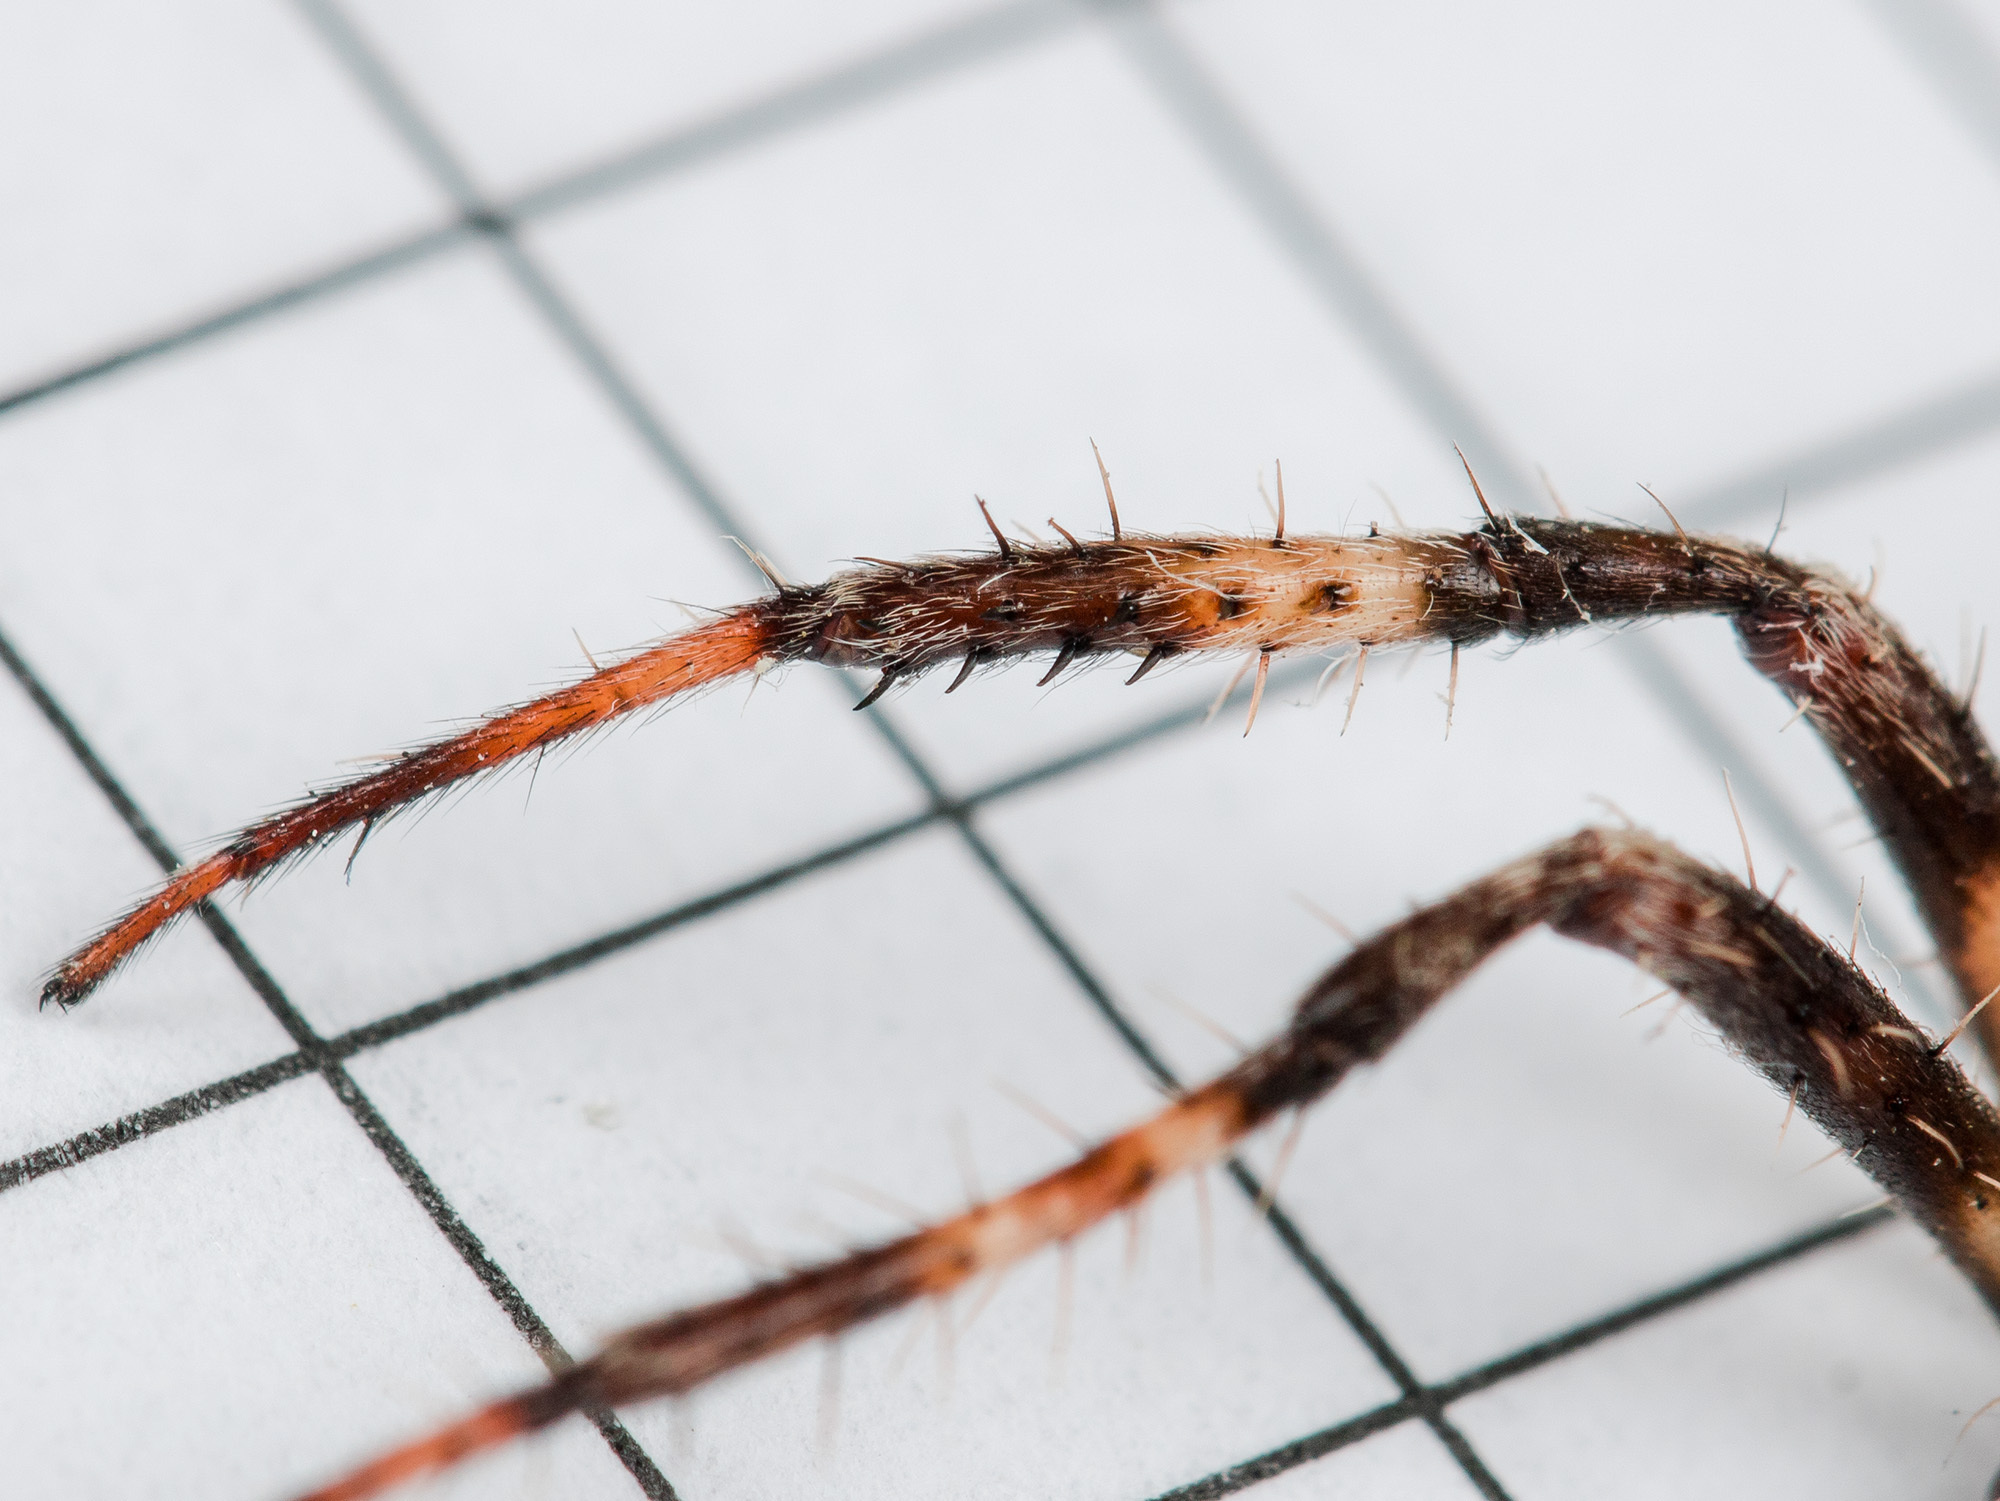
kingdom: Animalia
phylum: Arthropoda
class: Arachnida
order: Araneae
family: Araneidae
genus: Araneus
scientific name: Araneus tartaricus
